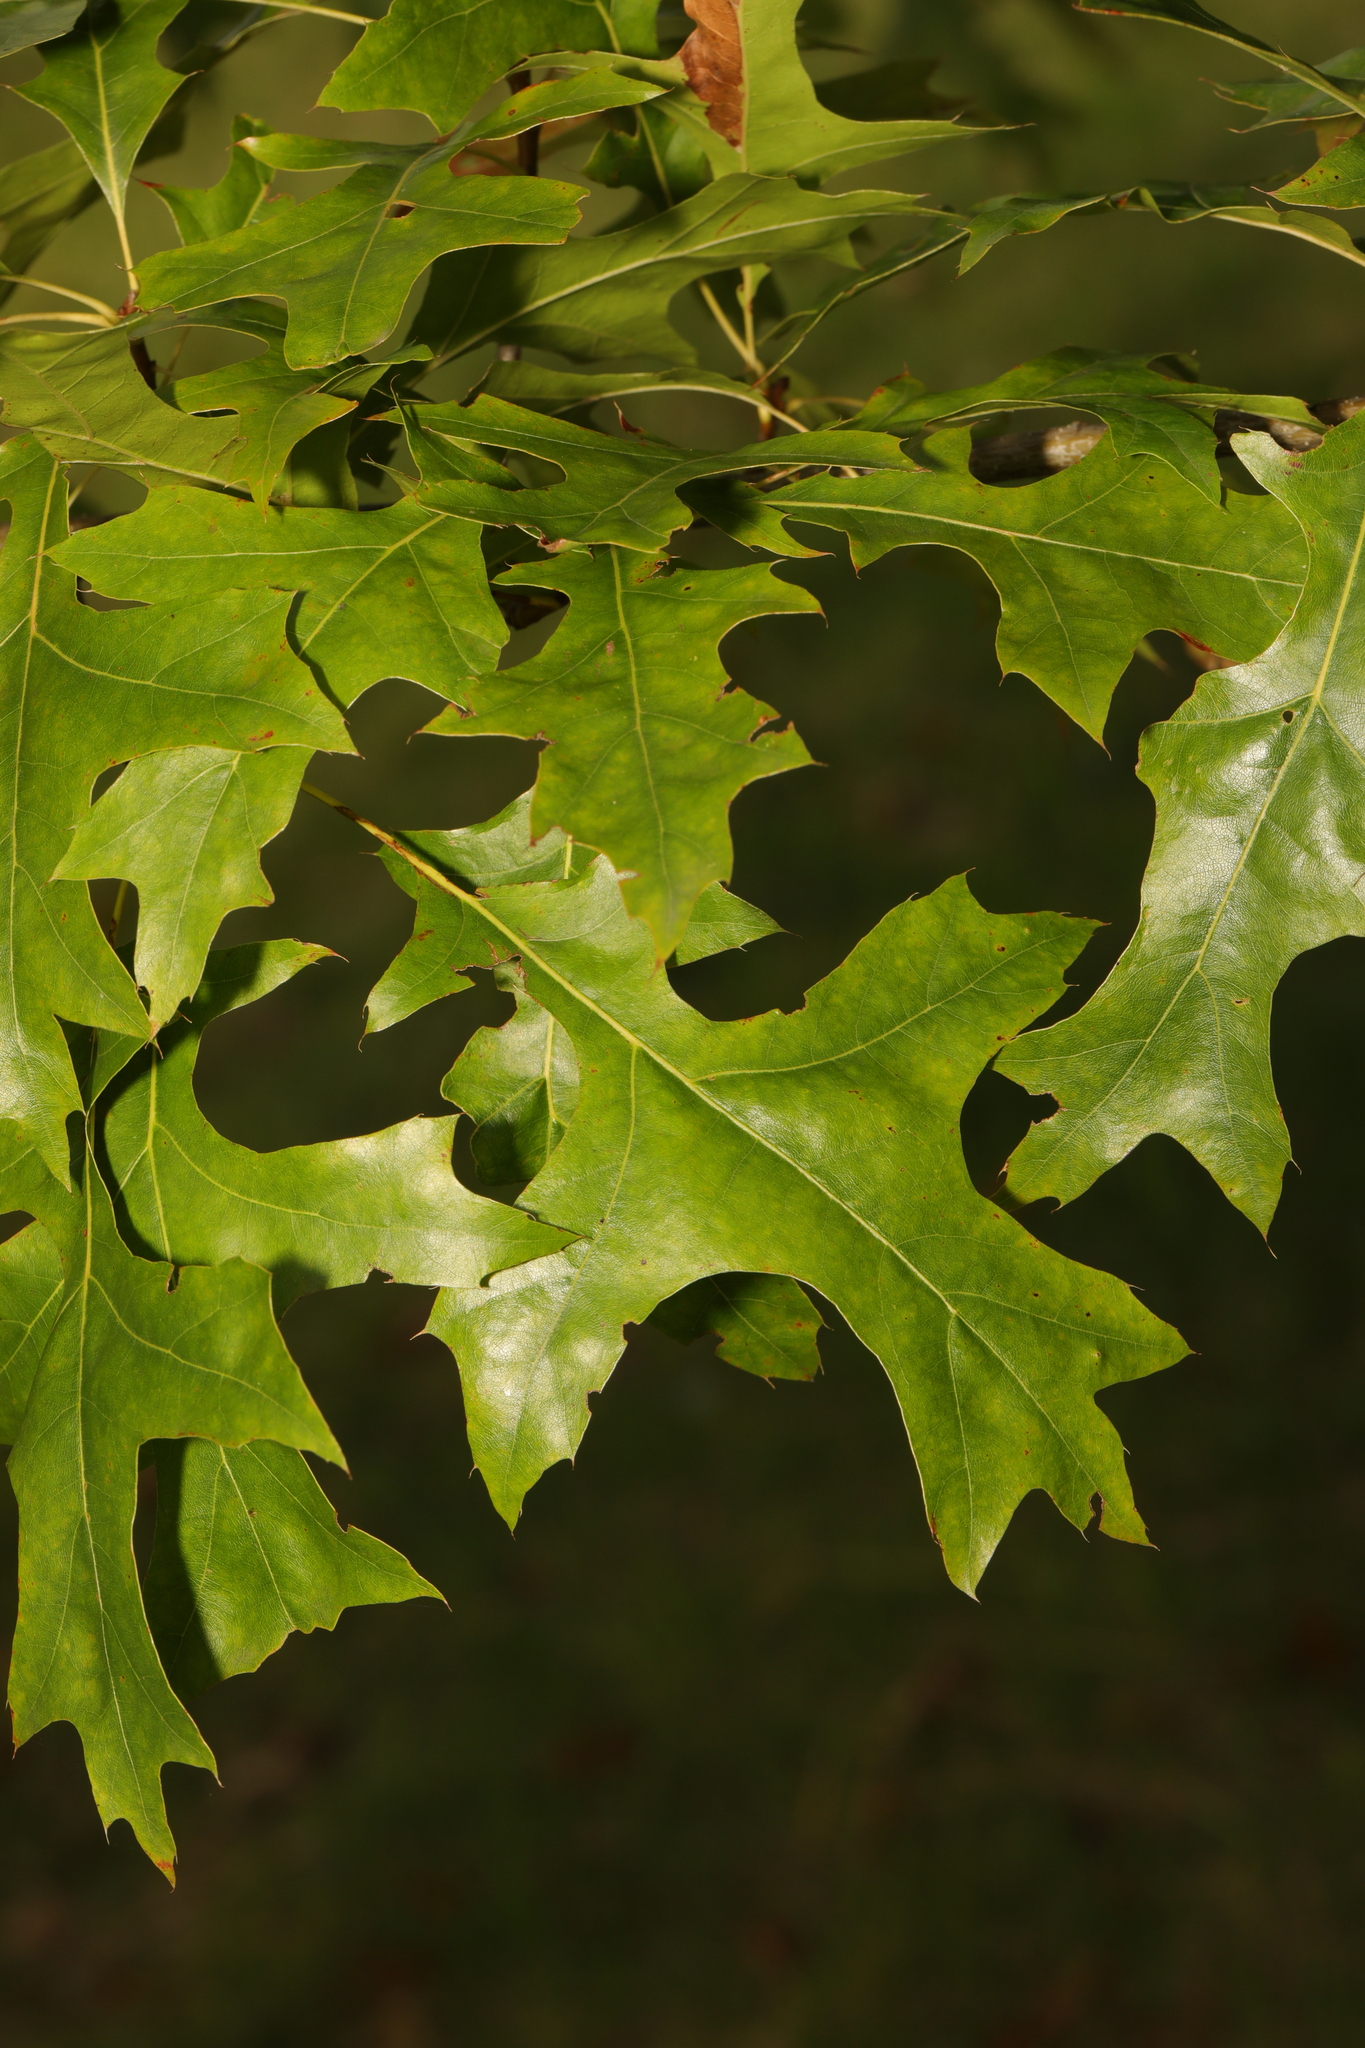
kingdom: Plantae
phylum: Tracheophyta
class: Magnoliopsida
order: Fagales
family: Fagaceae
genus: Quercus
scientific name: Quercus palustris
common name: Pin oak
